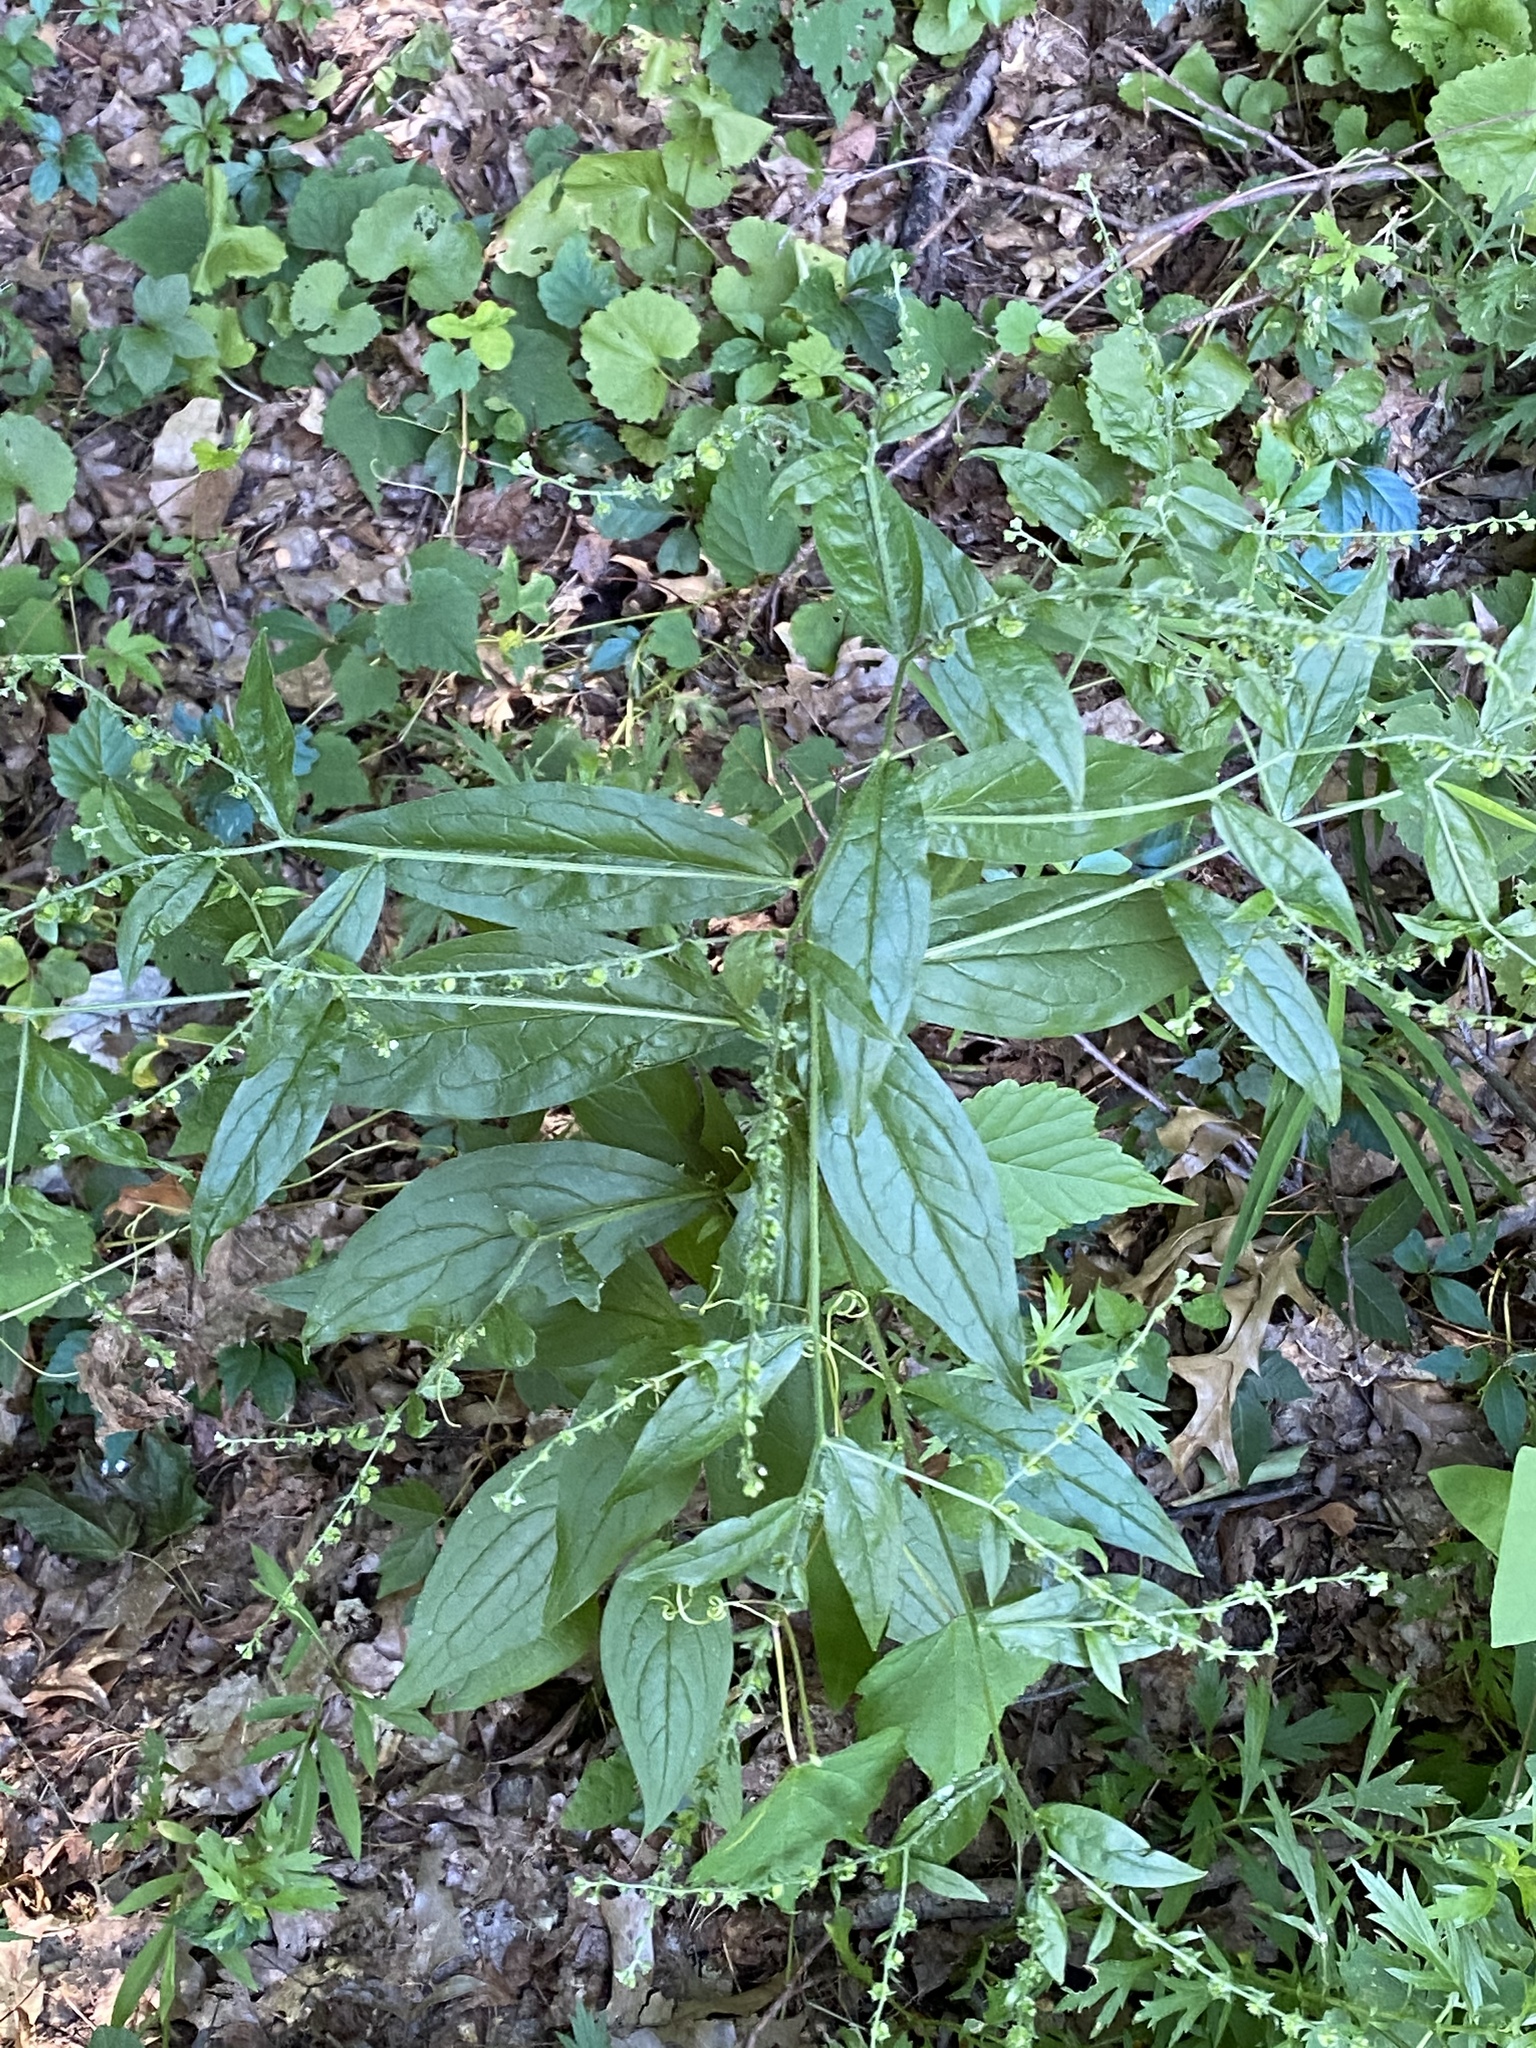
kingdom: Plantae
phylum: Tracheophyta
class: Magnoliopsida
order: Boraginales
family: Boraginaceae
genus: Hackelia
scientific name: Hackelia virginiana
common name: Beggar's-lice
